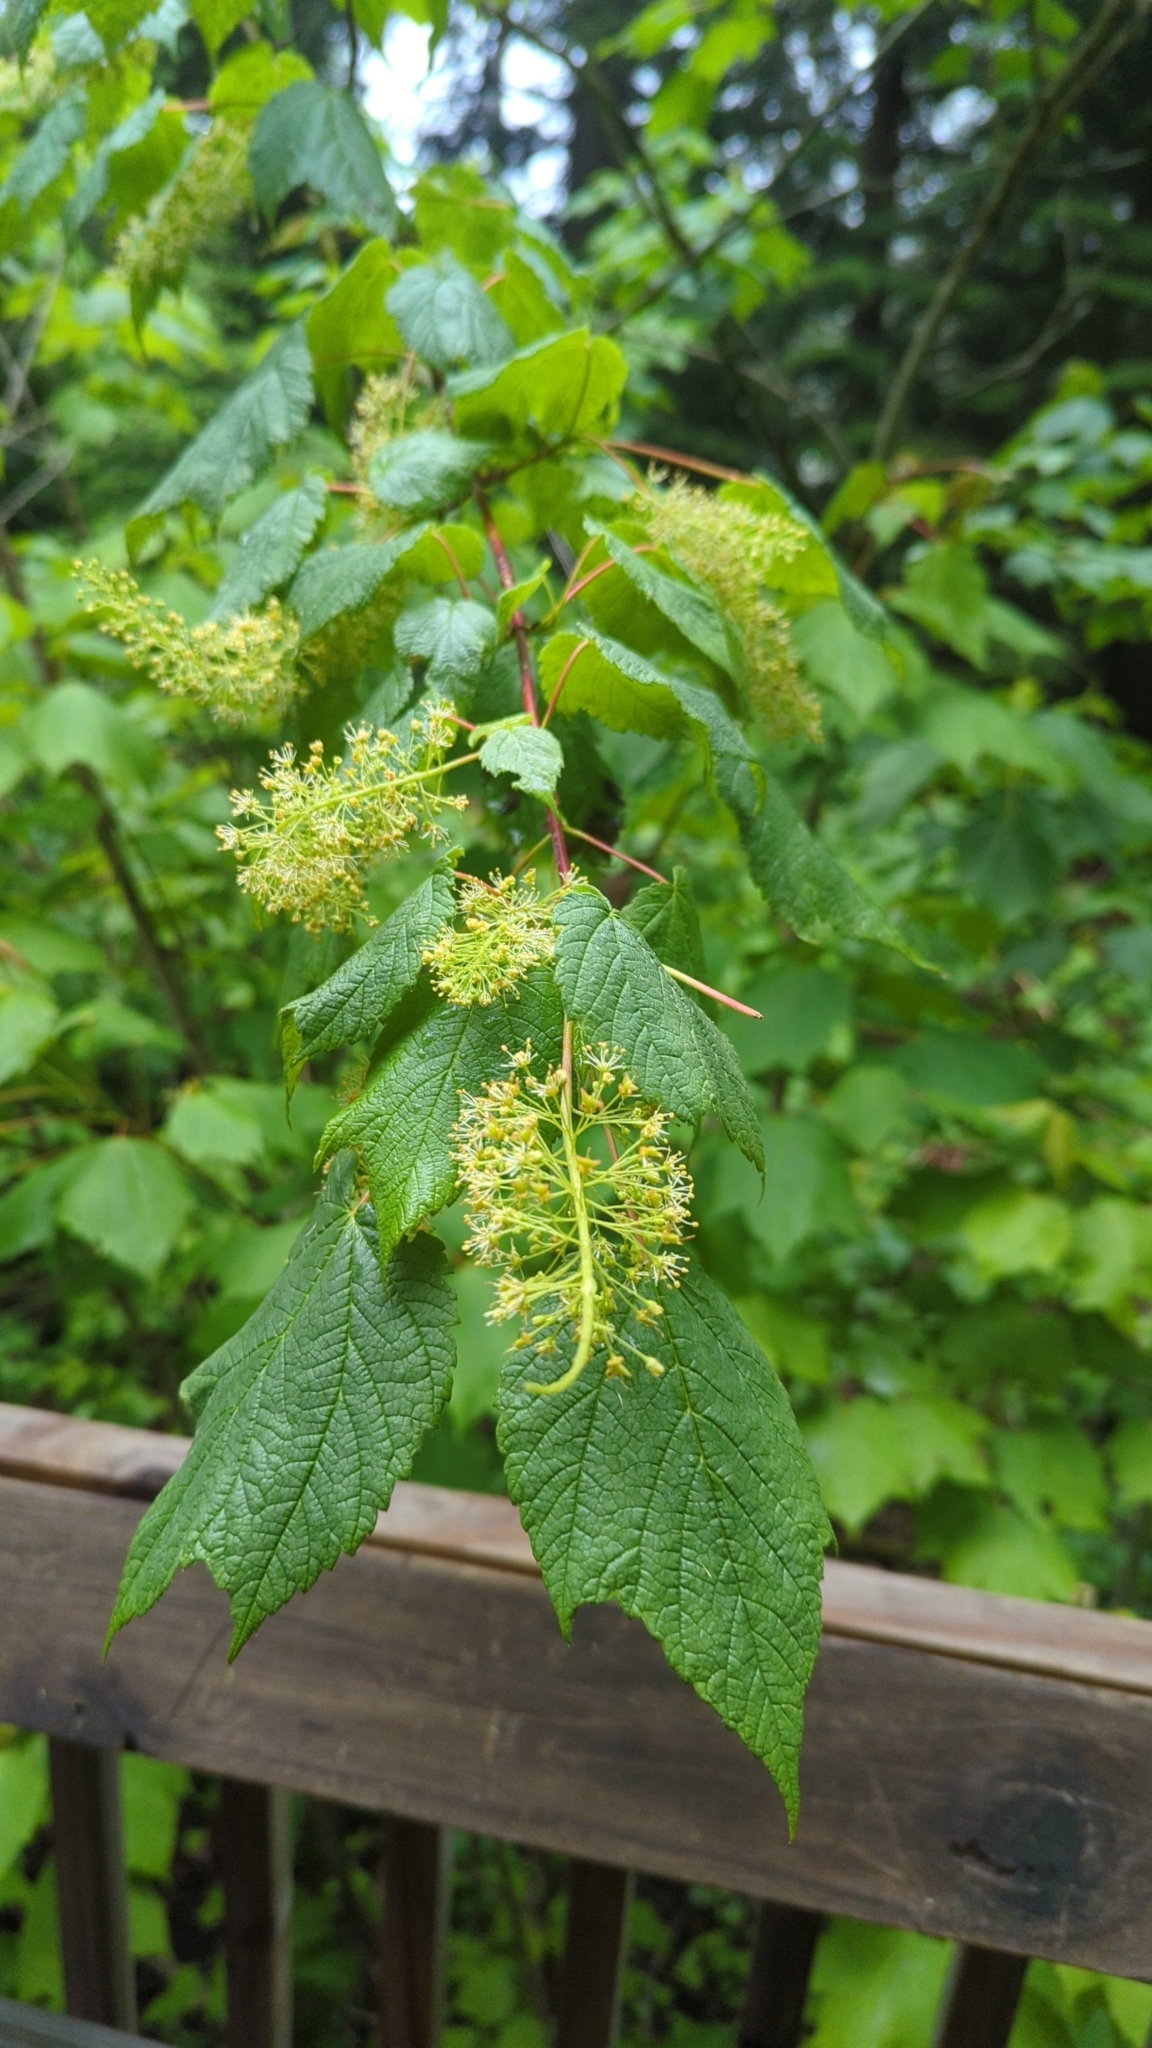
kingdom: Plantae
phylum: Tracheophyta
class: Magnoliopsida
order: Sapindales
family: Sapindaceae
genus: Acer
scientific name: Acer spicatum
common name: Mountain maple
